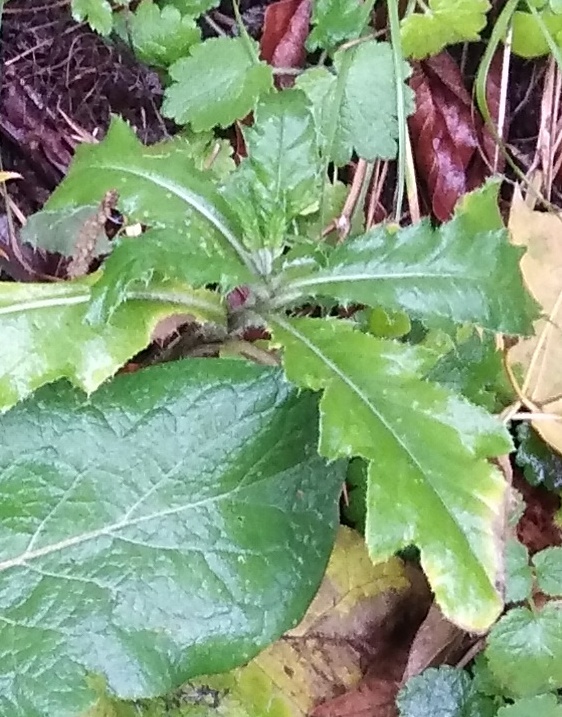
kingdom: Plantae
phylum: Tracheophyta
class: Magnoliopsida
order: Asterales
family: Asteraceae
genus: Cirsium
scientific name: Cirsium arvense
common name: Creeping thistle
